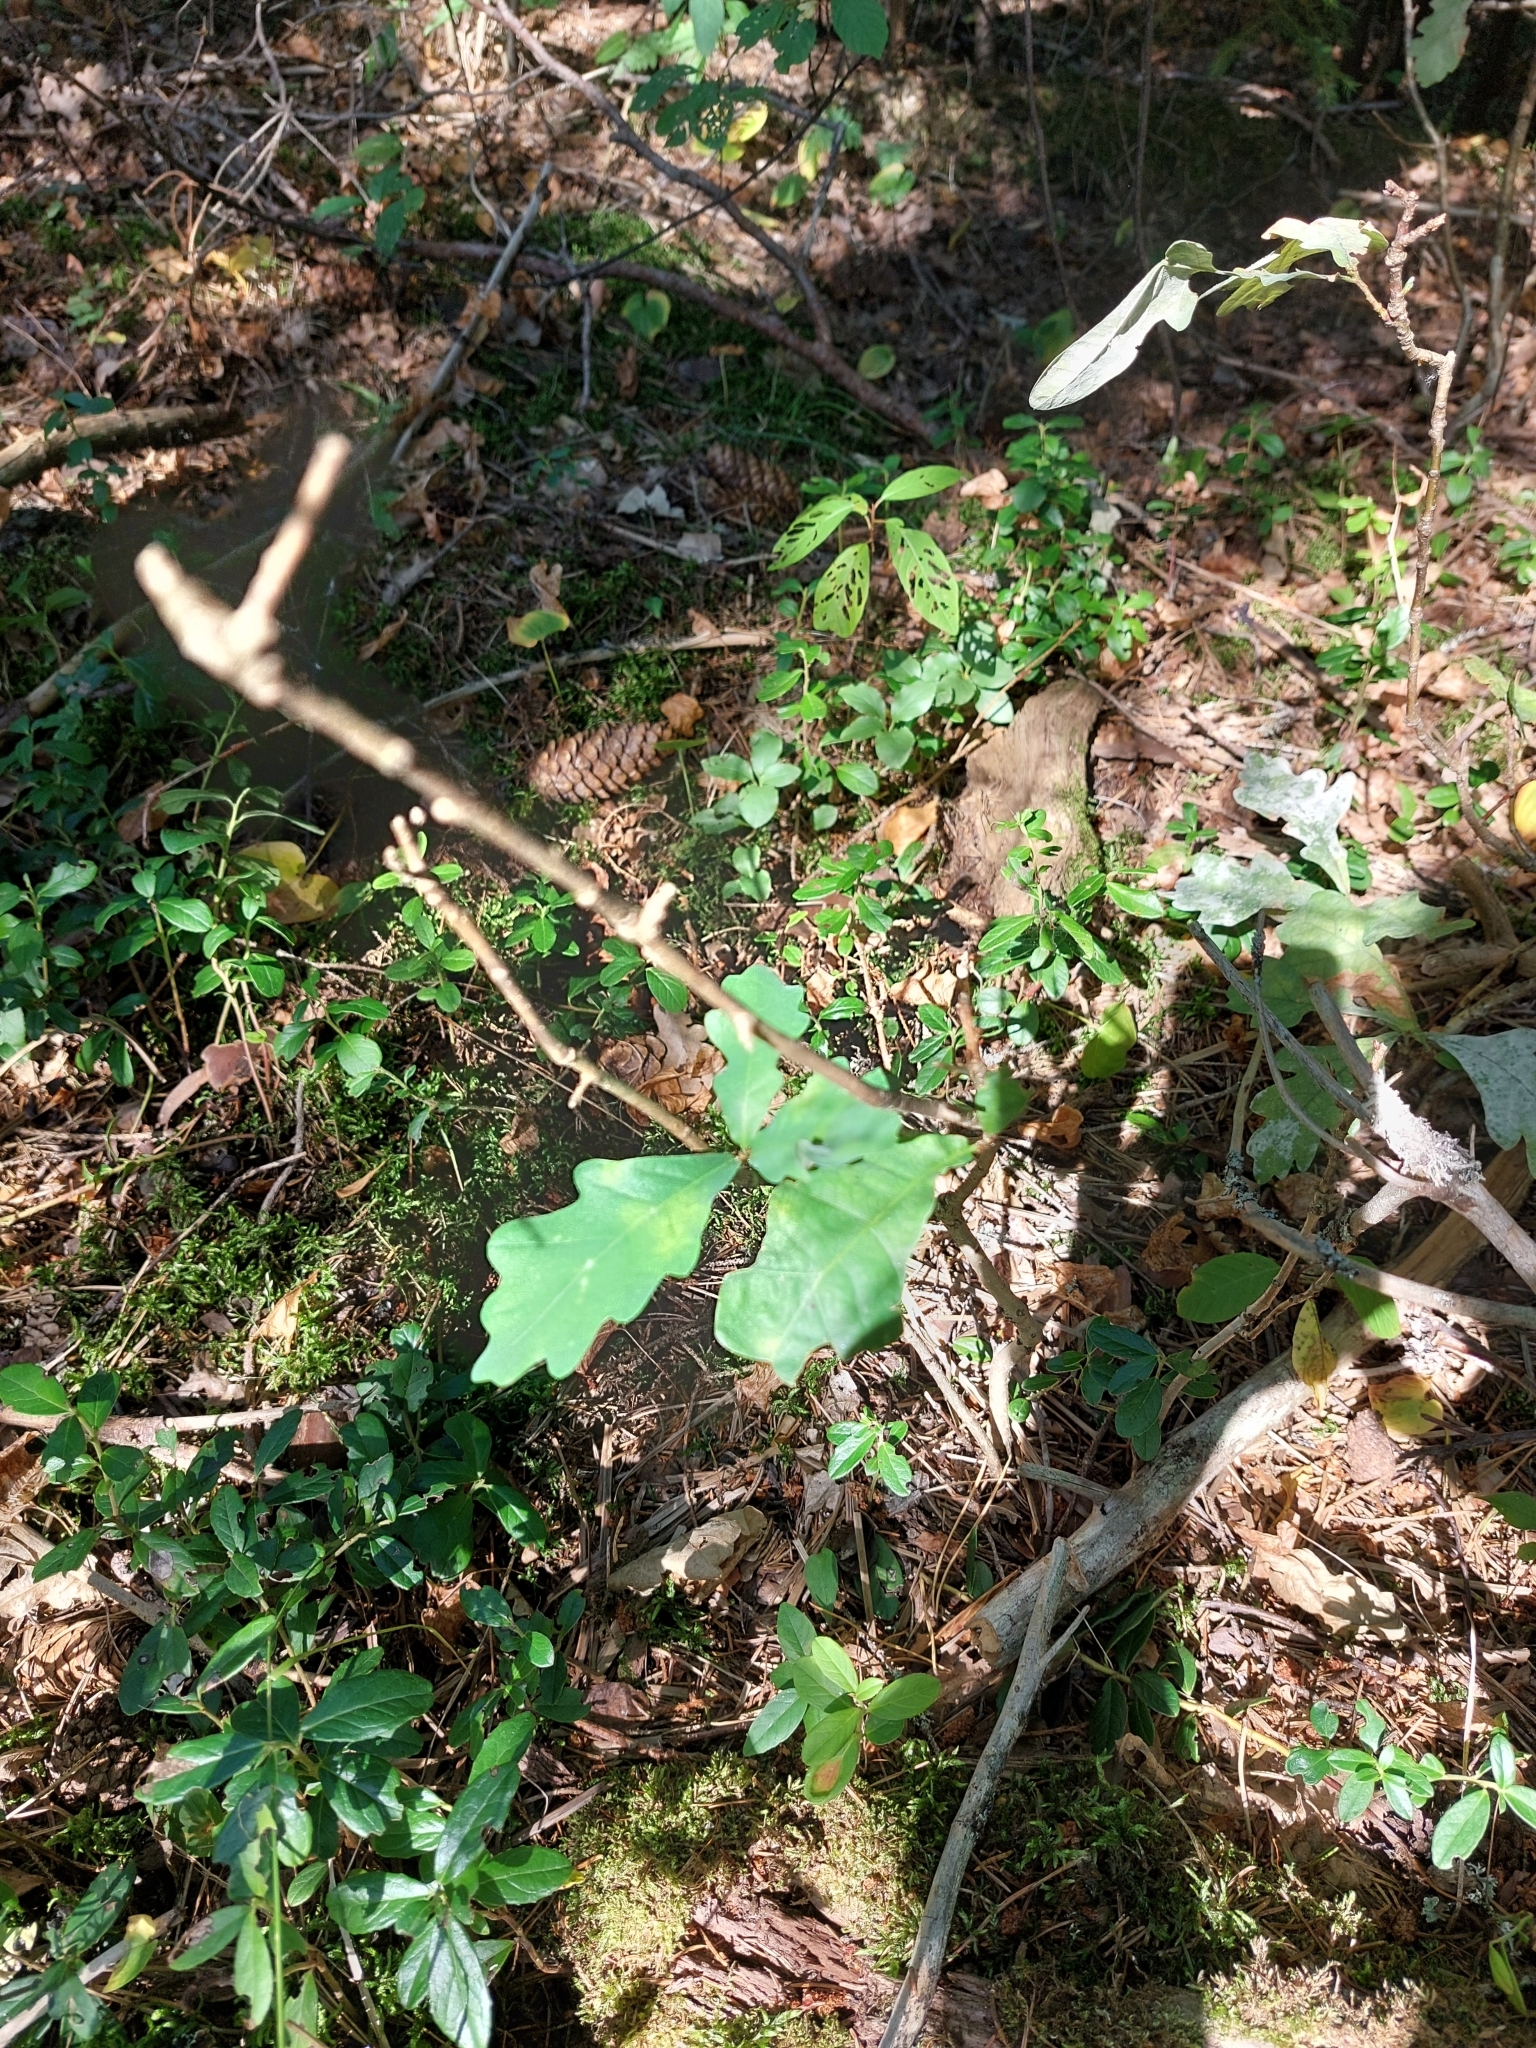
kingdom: Plantae
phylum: Tracheophyta
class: Magnoliopsida
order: Fagales
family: Fagaceae
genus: Quercus
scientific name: Quercus robur
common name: Pedunculate oak
